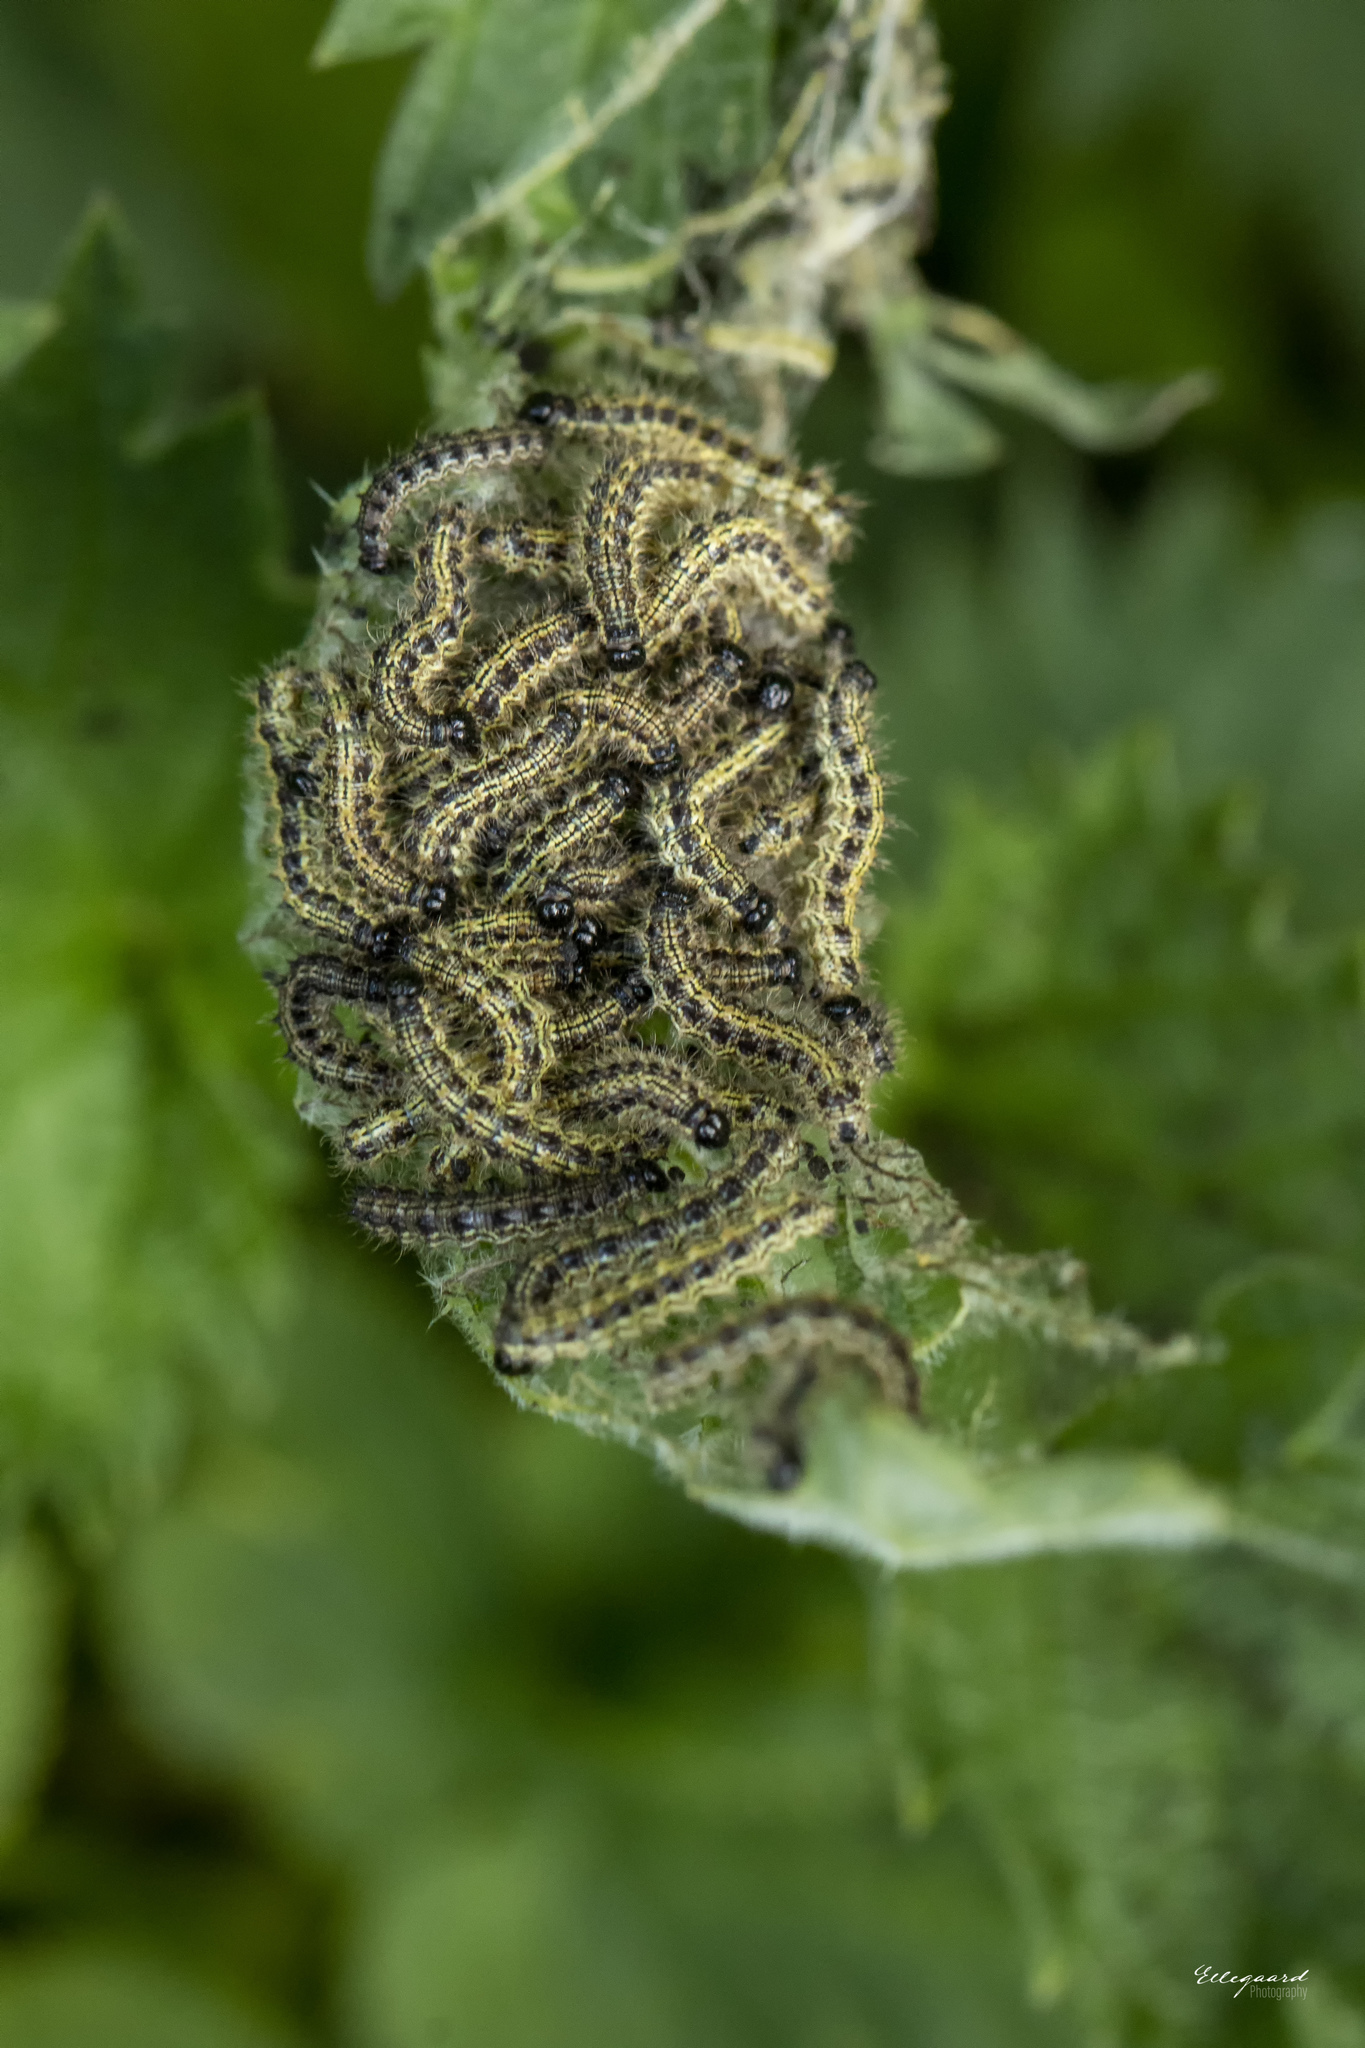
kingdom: Animalia
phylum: Arthropoda
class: Insecta
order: Lepidoptera
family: Nymphalidae
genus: Aglais
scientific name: Aglais urticae
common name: Small tortoiseshell
